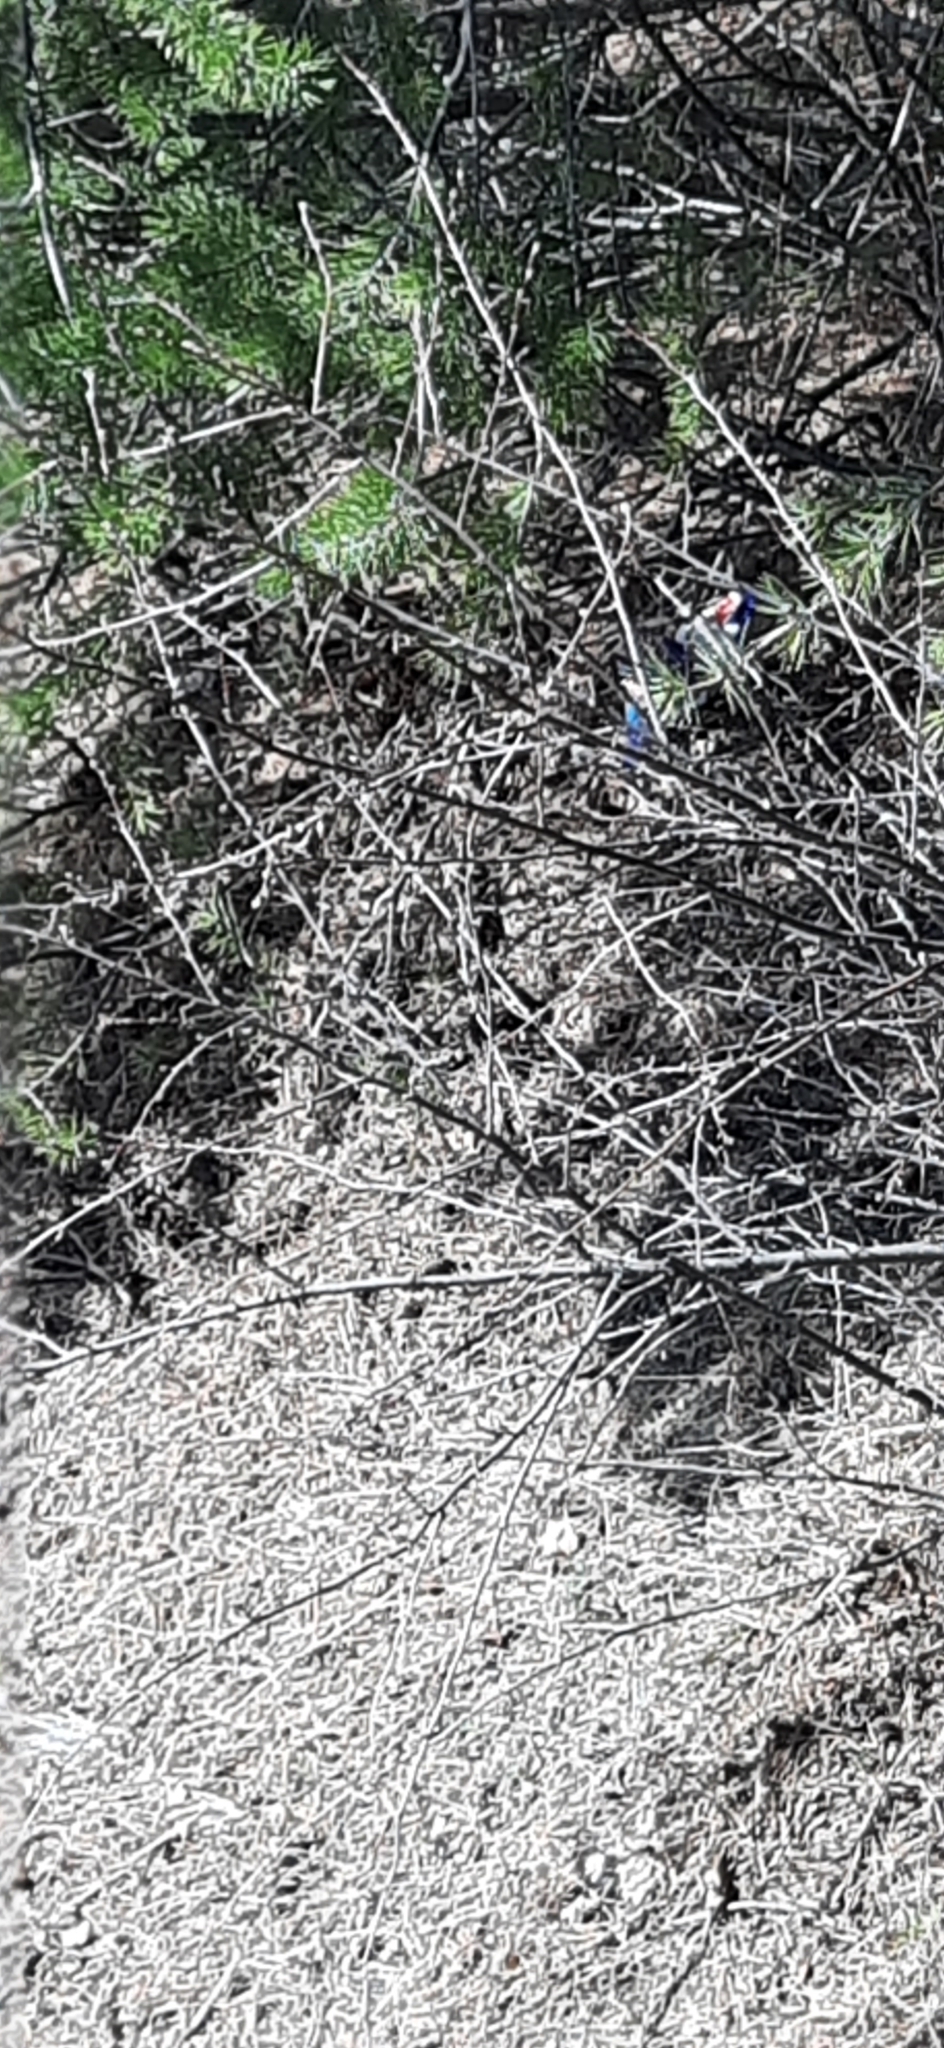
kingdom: Plantae
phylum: Tracheophyta
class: Magnoliopsida
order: Rosales
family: Rosaceae
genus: Cotoneaster
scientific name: Cotoneaster melanocarpus
